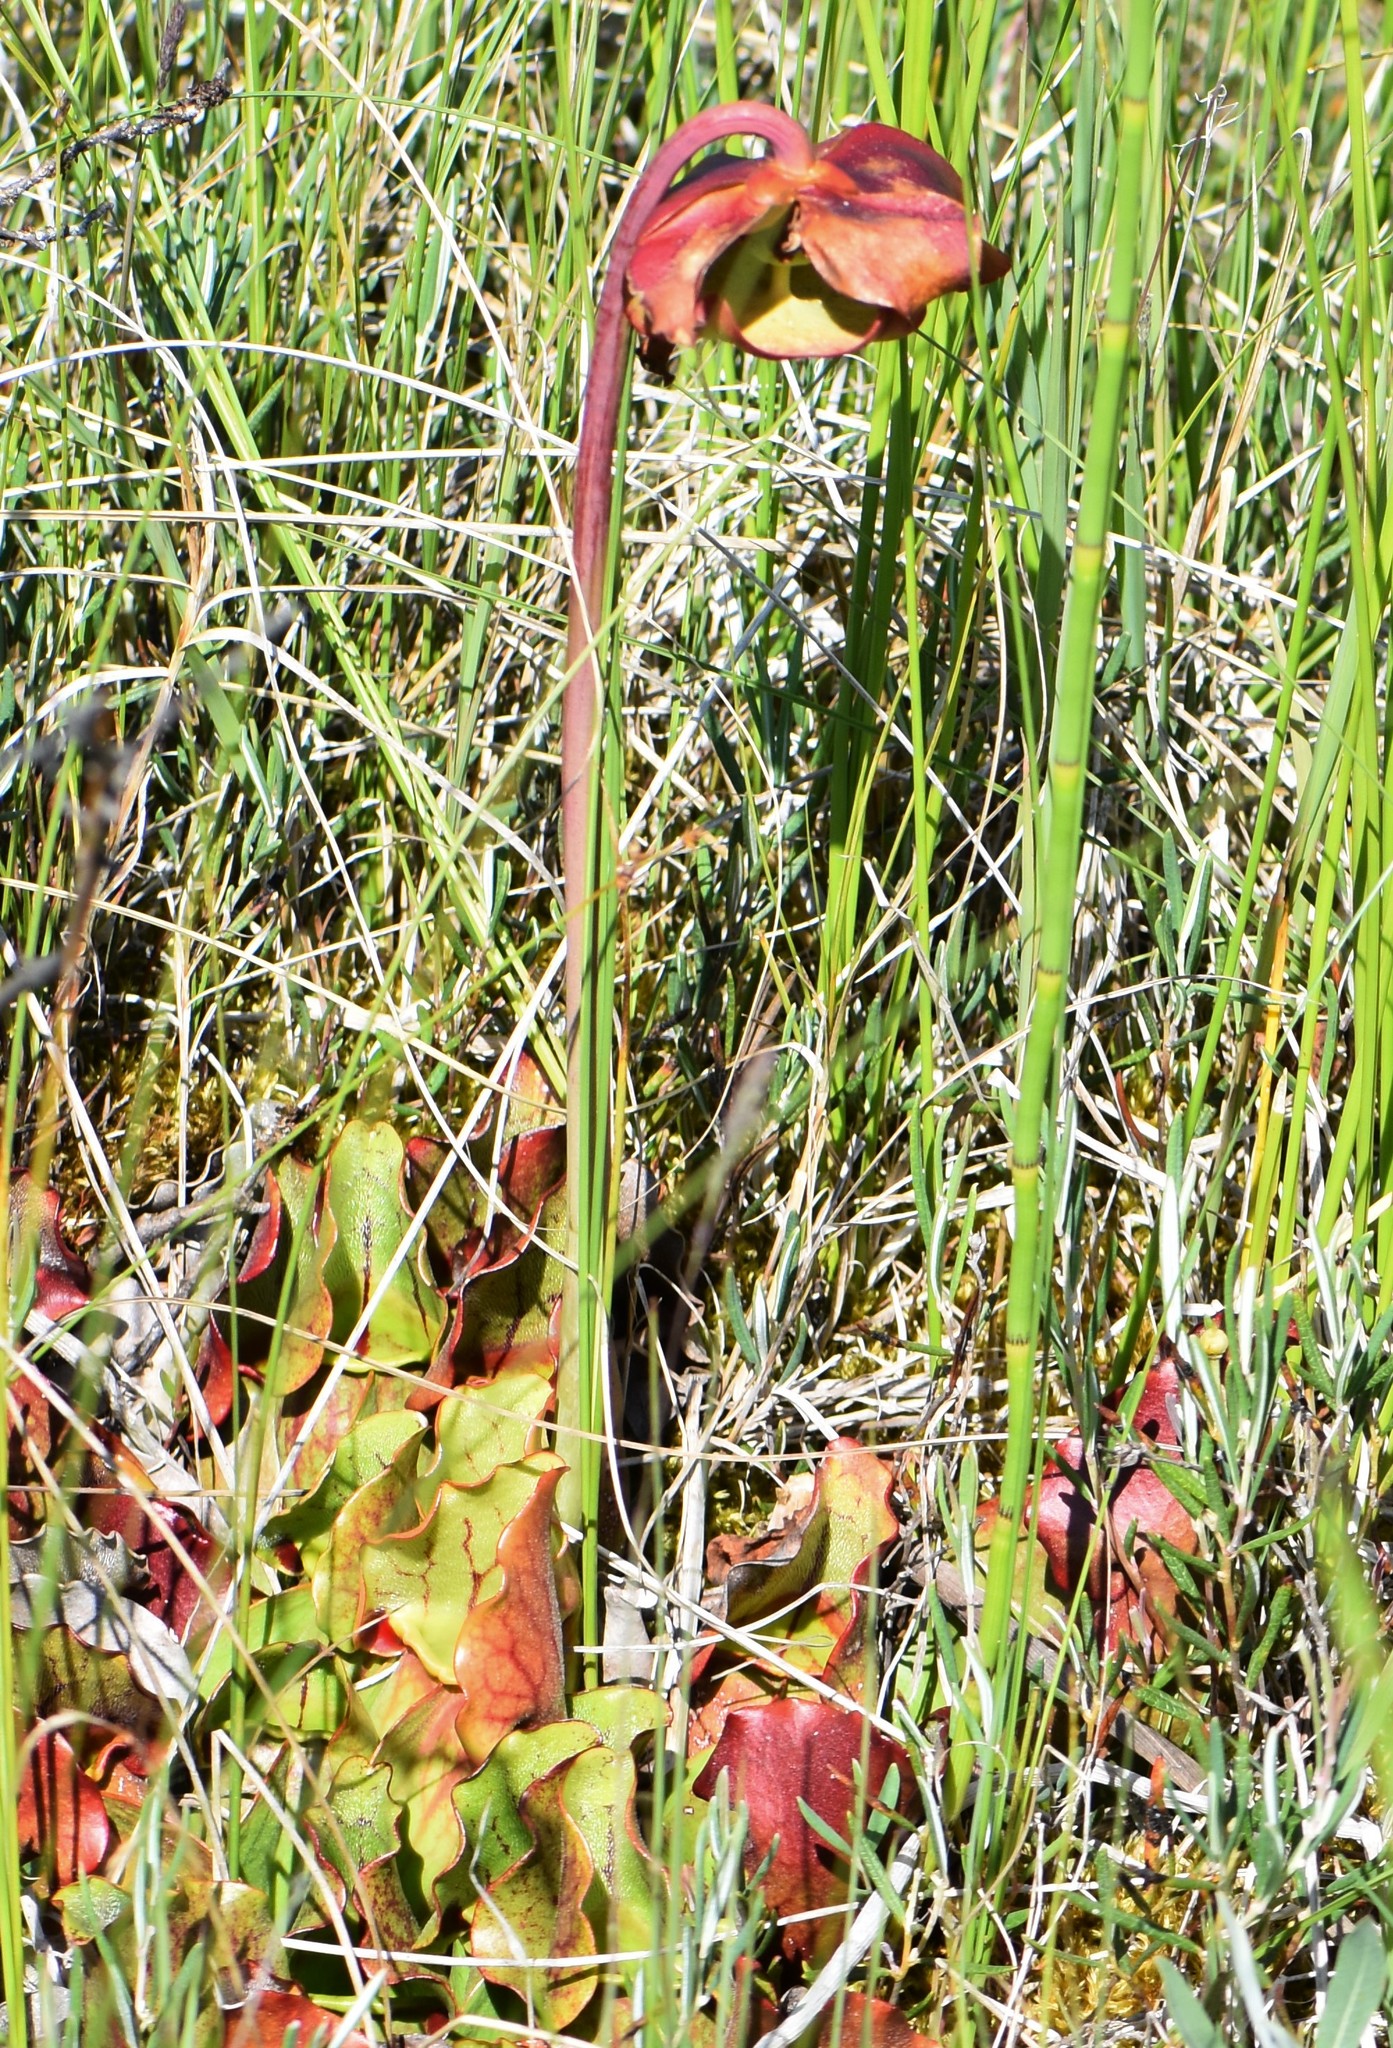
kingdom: Plantae
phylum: Tracheophyta
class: Magnoliopsida
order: Ericales
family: Sarraceniaceae
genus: Sarracenia
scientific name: Sarracenia purpurea
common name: Pitcherplant
